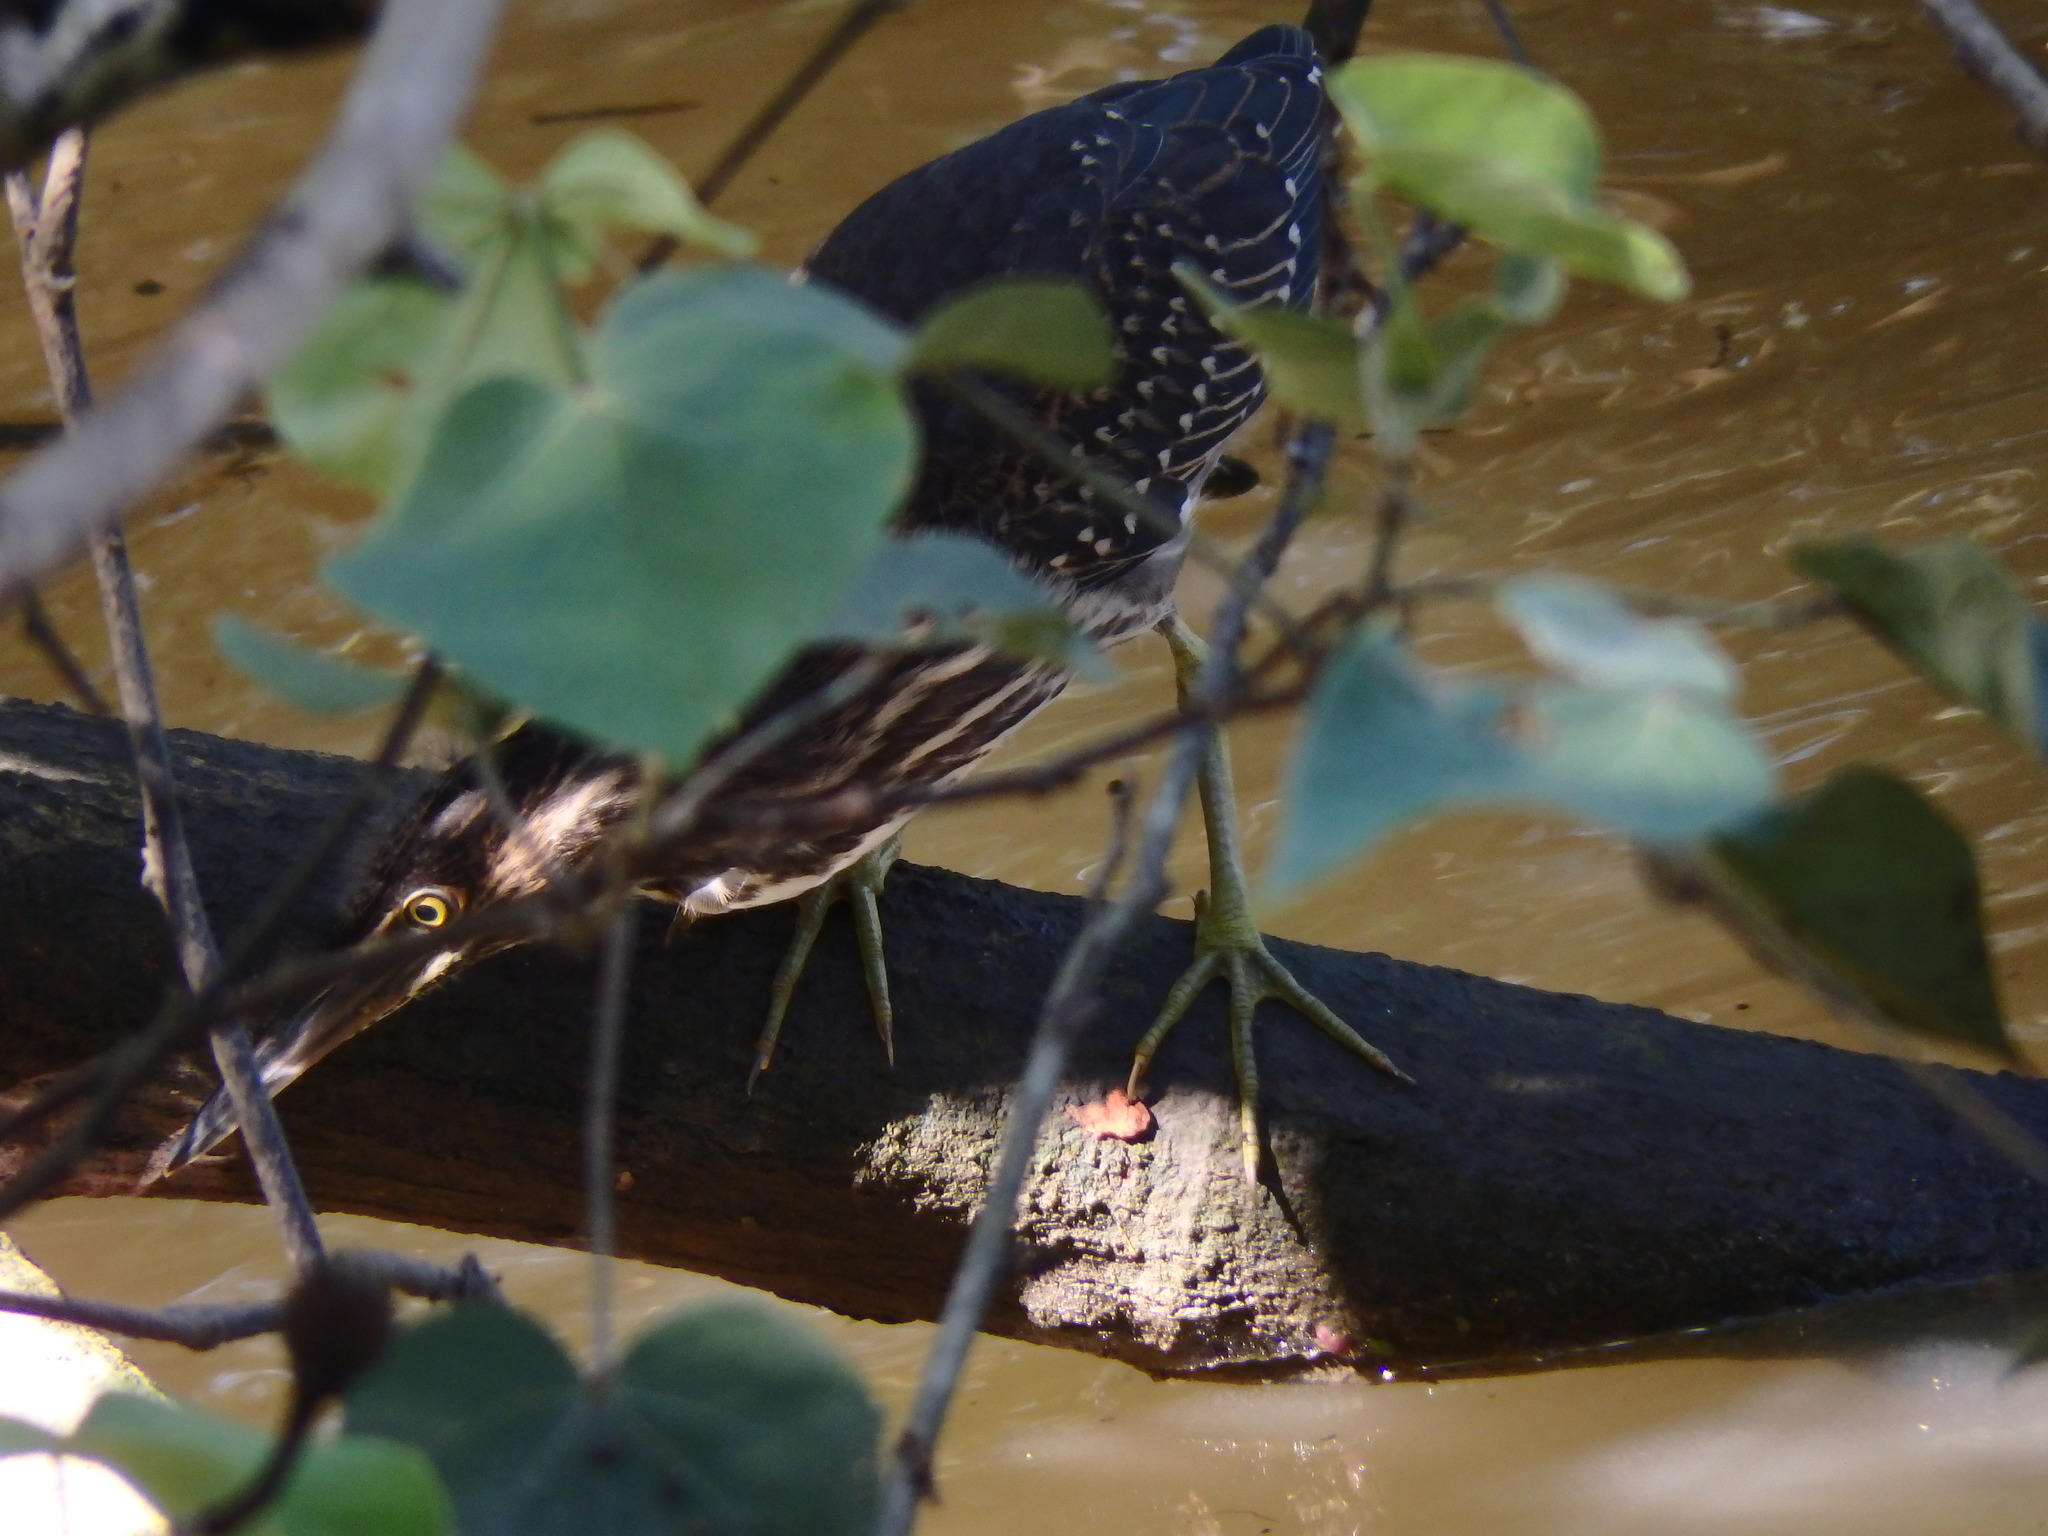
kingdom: Animalia
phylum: Chordata
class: Aves
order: Pelecaniformes
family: Ardeidae
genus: Butorides
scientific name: Butorides striata
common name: Striated heron
